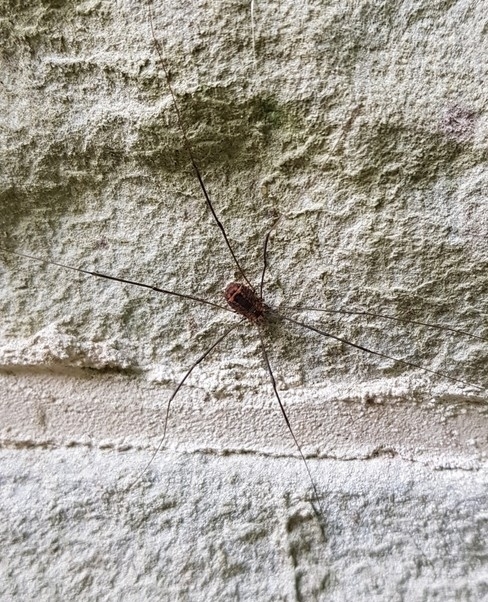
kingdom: Animalia
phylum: Arthropoda
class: Arachnida
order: Opiliones
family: Sclerosomatidae
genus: Leiobunum
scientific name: Leiobunum rotundum
